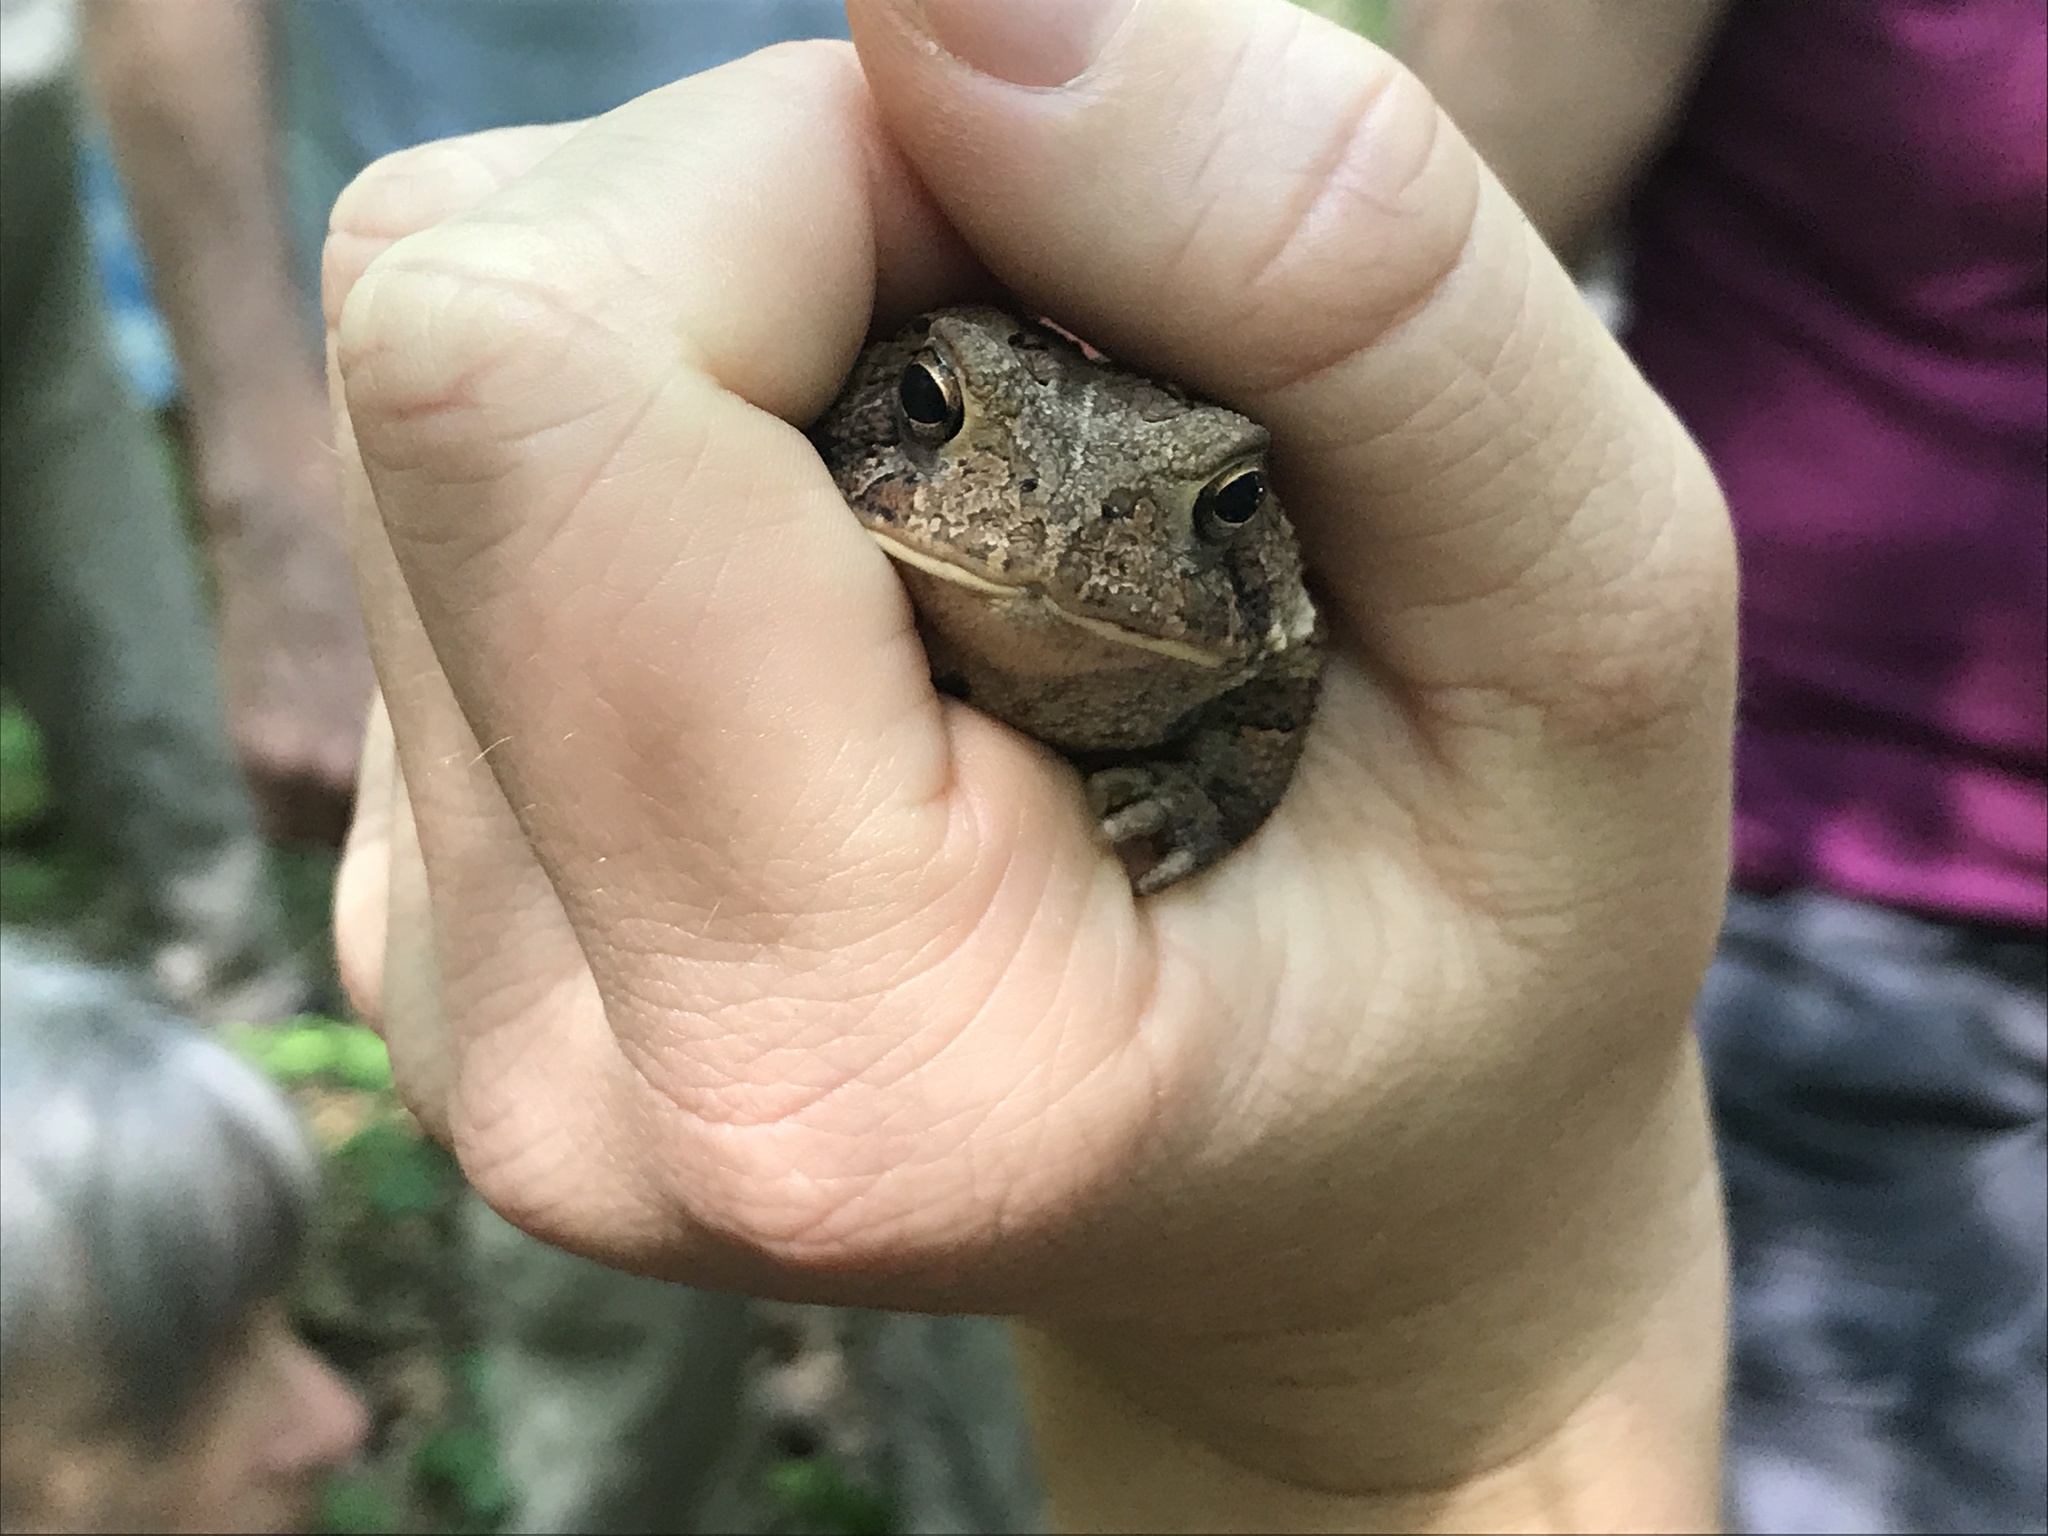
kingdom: Animalia
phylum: Chordata
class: Amphibia
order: Anura
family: Bufonidae
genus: Anaxyrus
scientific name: Anaxyrus americanus
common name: American toad
